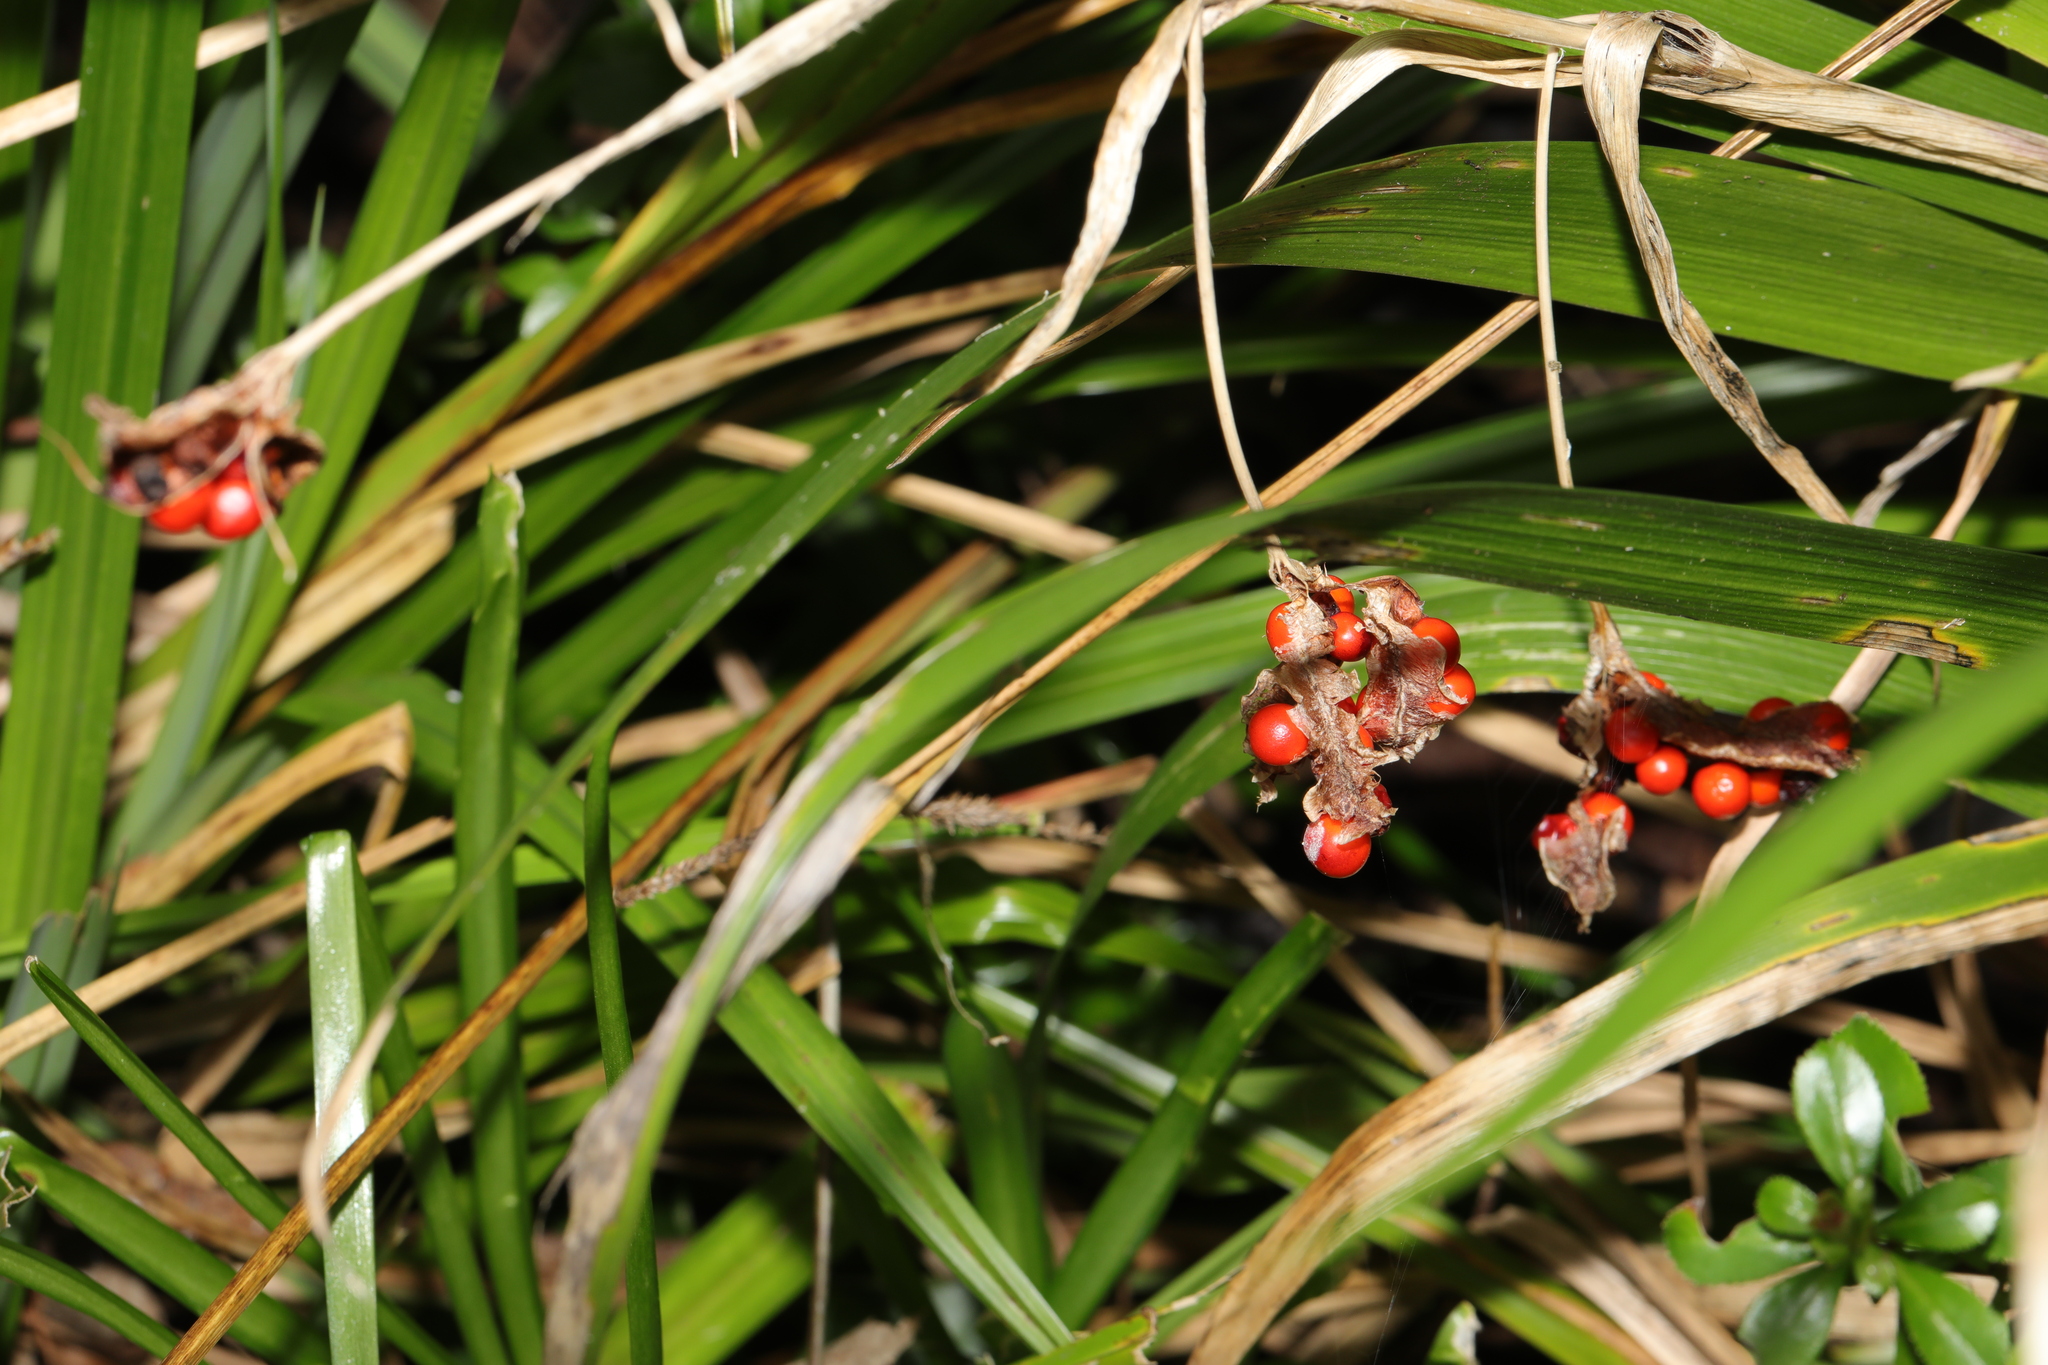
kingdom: Plantae
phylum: Tracheophyta
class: Liliopsida
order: Asparagales
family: Iridaceae
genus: Iris
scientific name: Iris foetidissima
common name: Stinking iris
